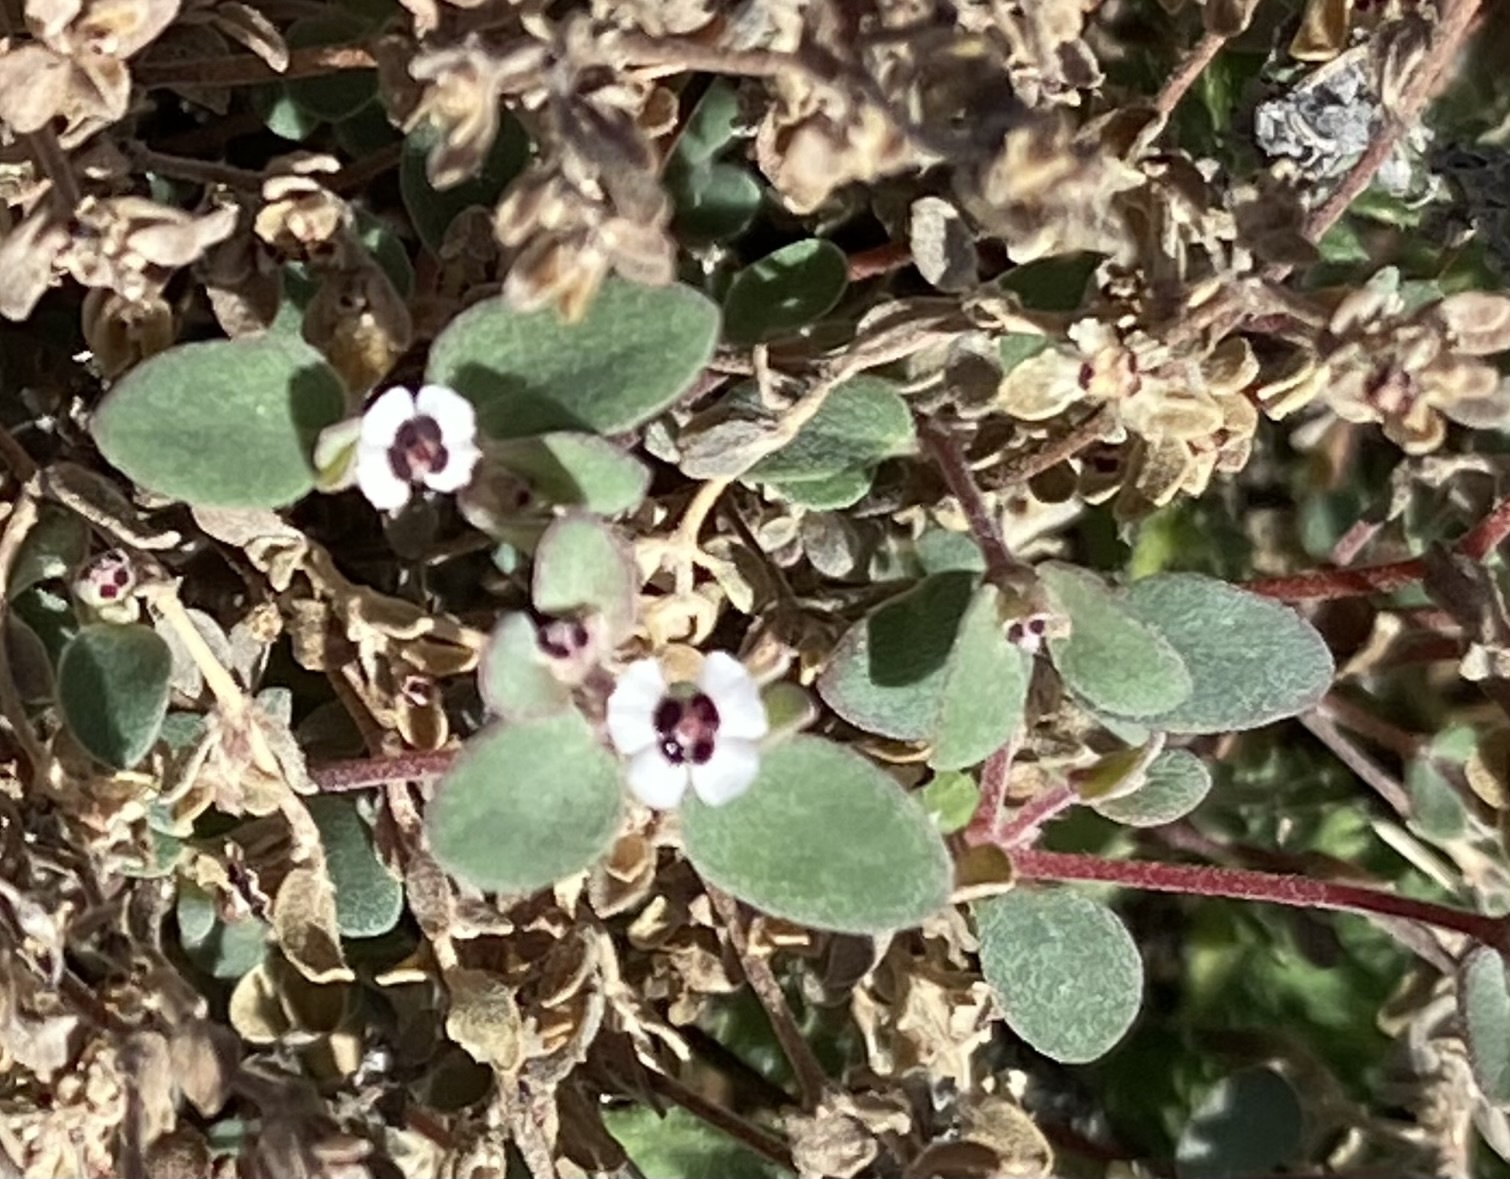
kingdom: Plantae
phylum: Tracheophyta
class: Magnoliopsida
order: Malpighiales
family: Euphorbiaceae
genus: Euphorbia
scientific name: Euphorbia melanadenia
